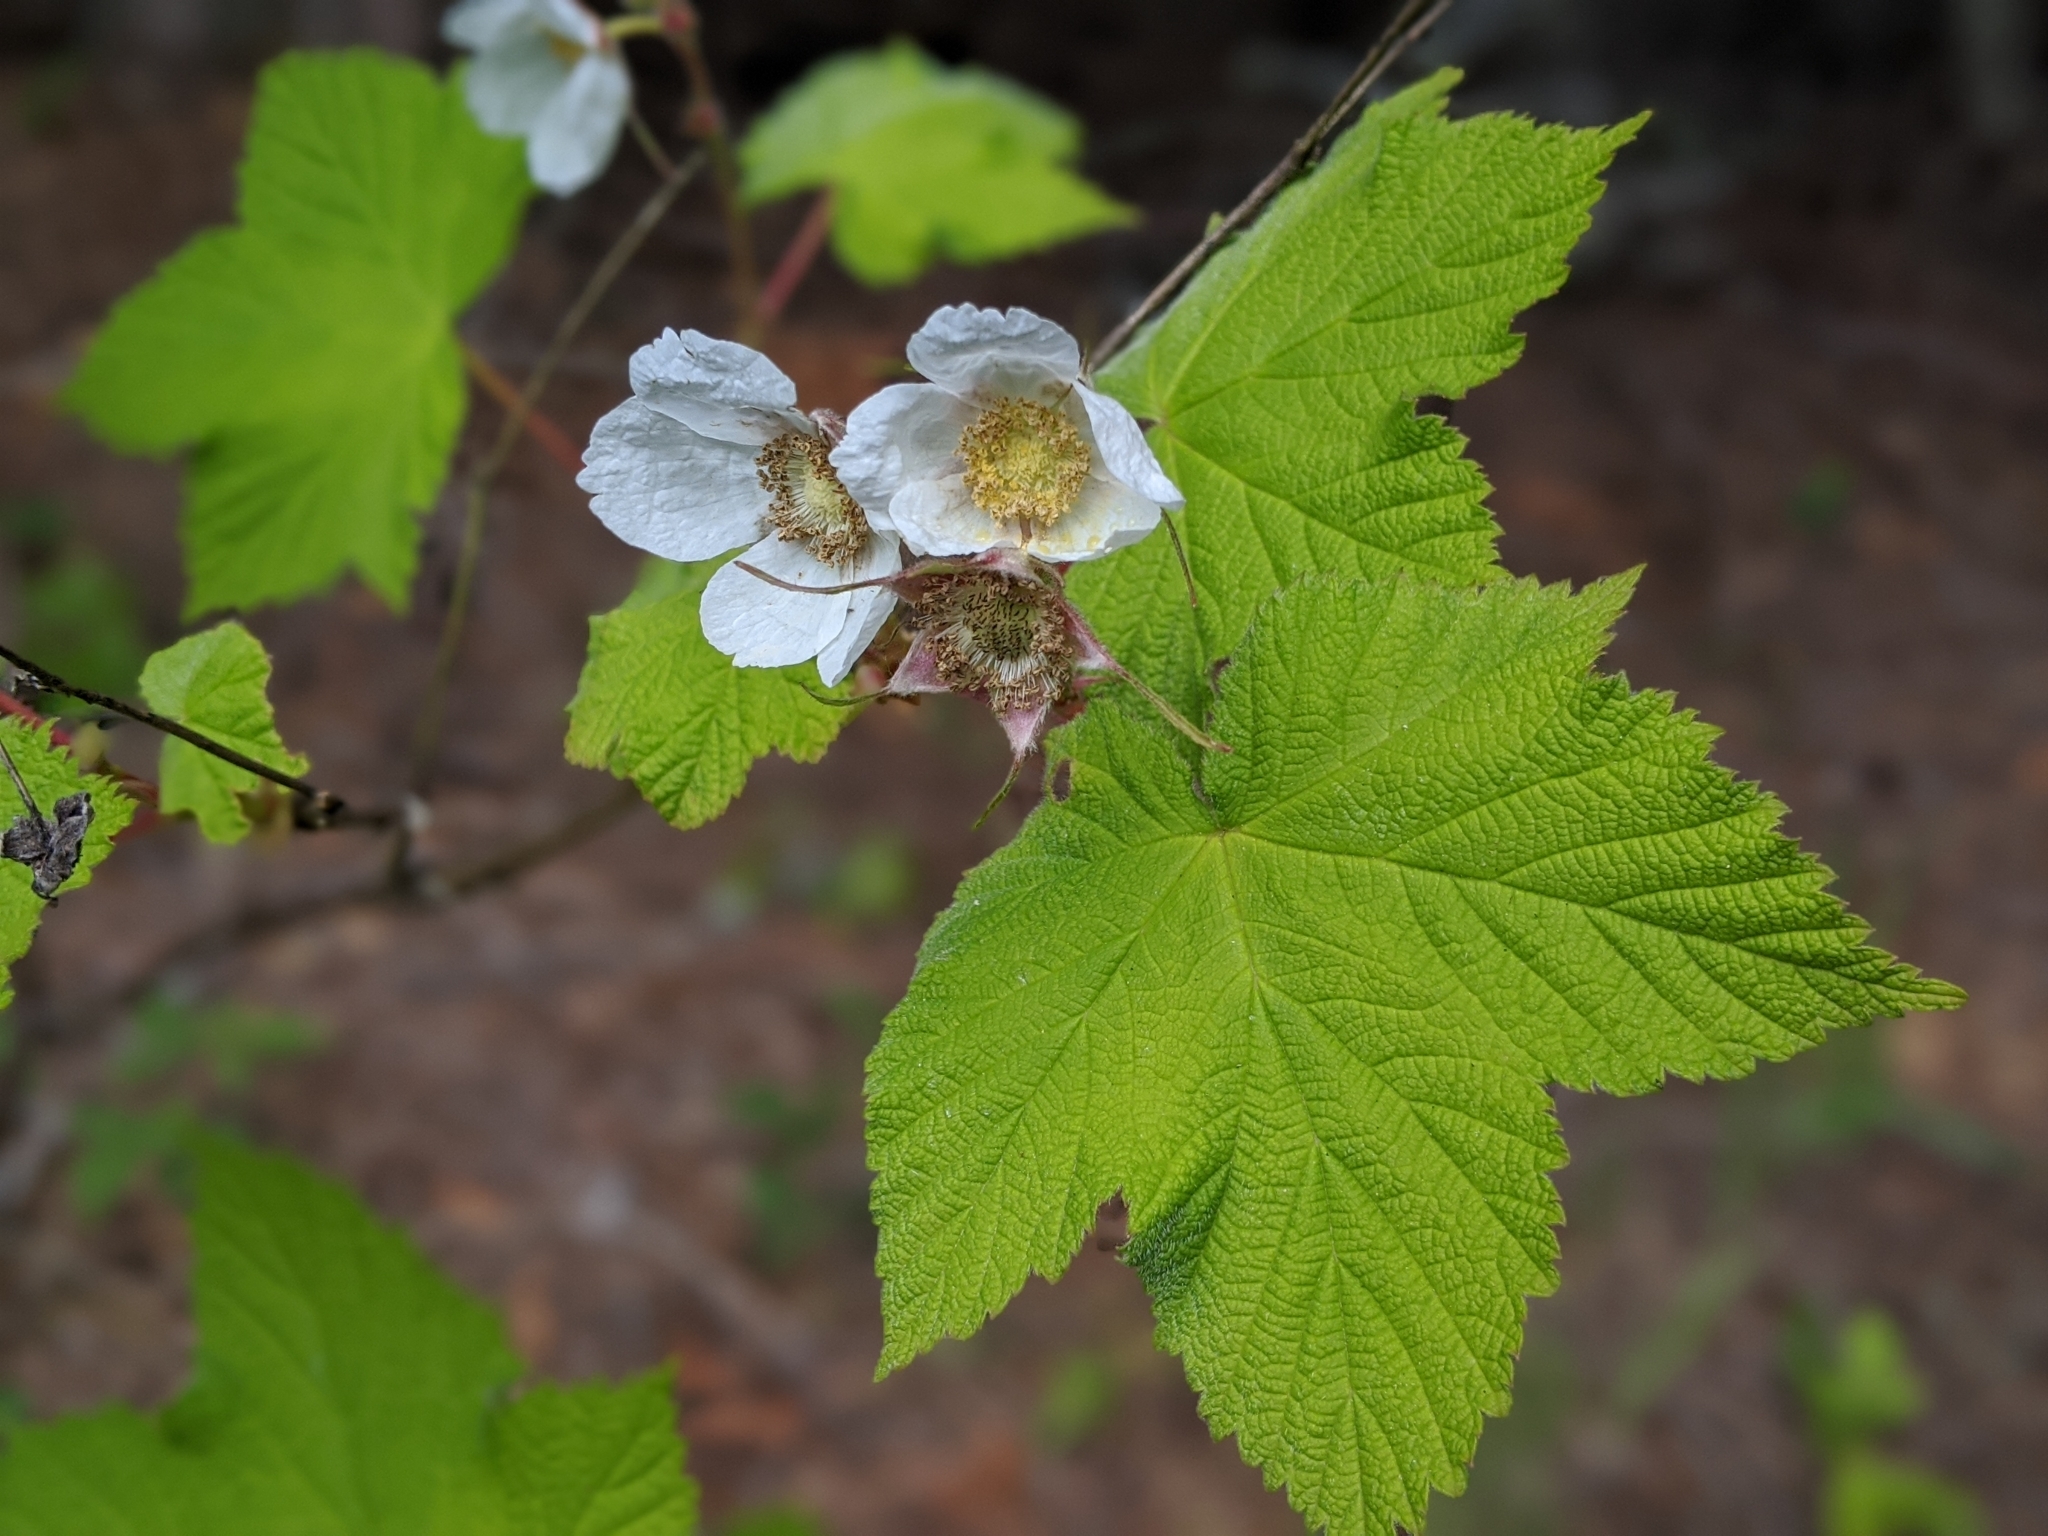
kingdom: Plantae
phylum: Tracheophyta
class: Magnoliopsida
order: Rosales
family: Rosaceae
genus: Rubus
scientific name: Rubus parviflorus
